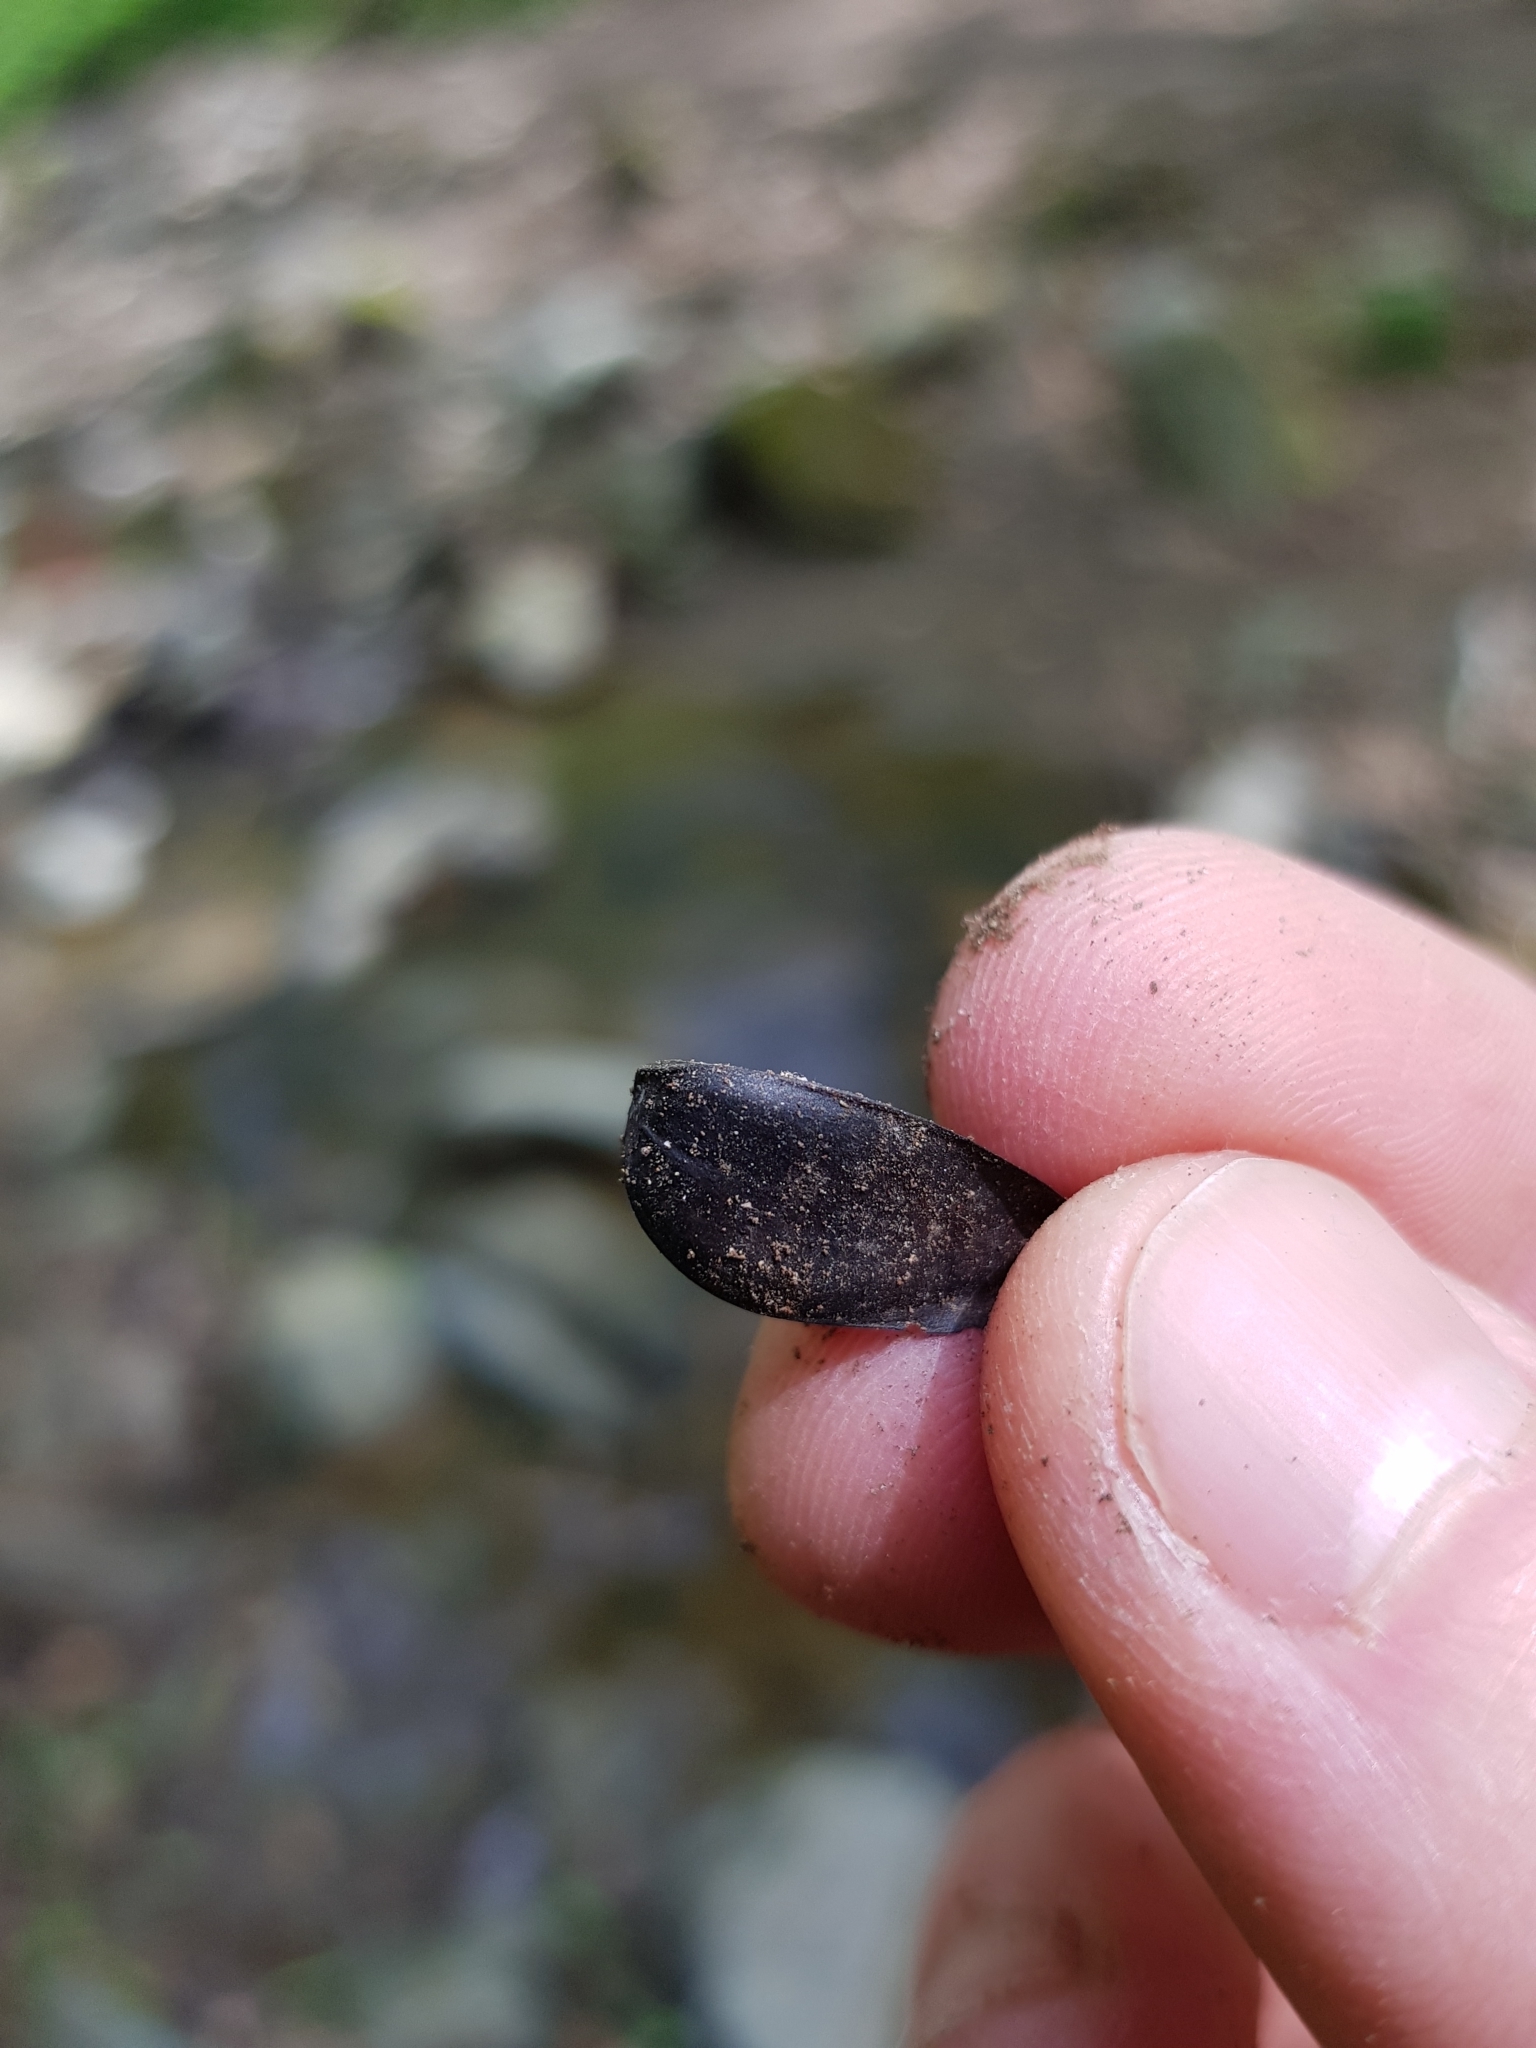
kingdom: Plantae
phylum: Tracheophyta
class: Magnoliopsida
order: Fagales
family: Fagaceae
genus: Fagus
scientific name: Fagus sylvatica
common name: Beech
